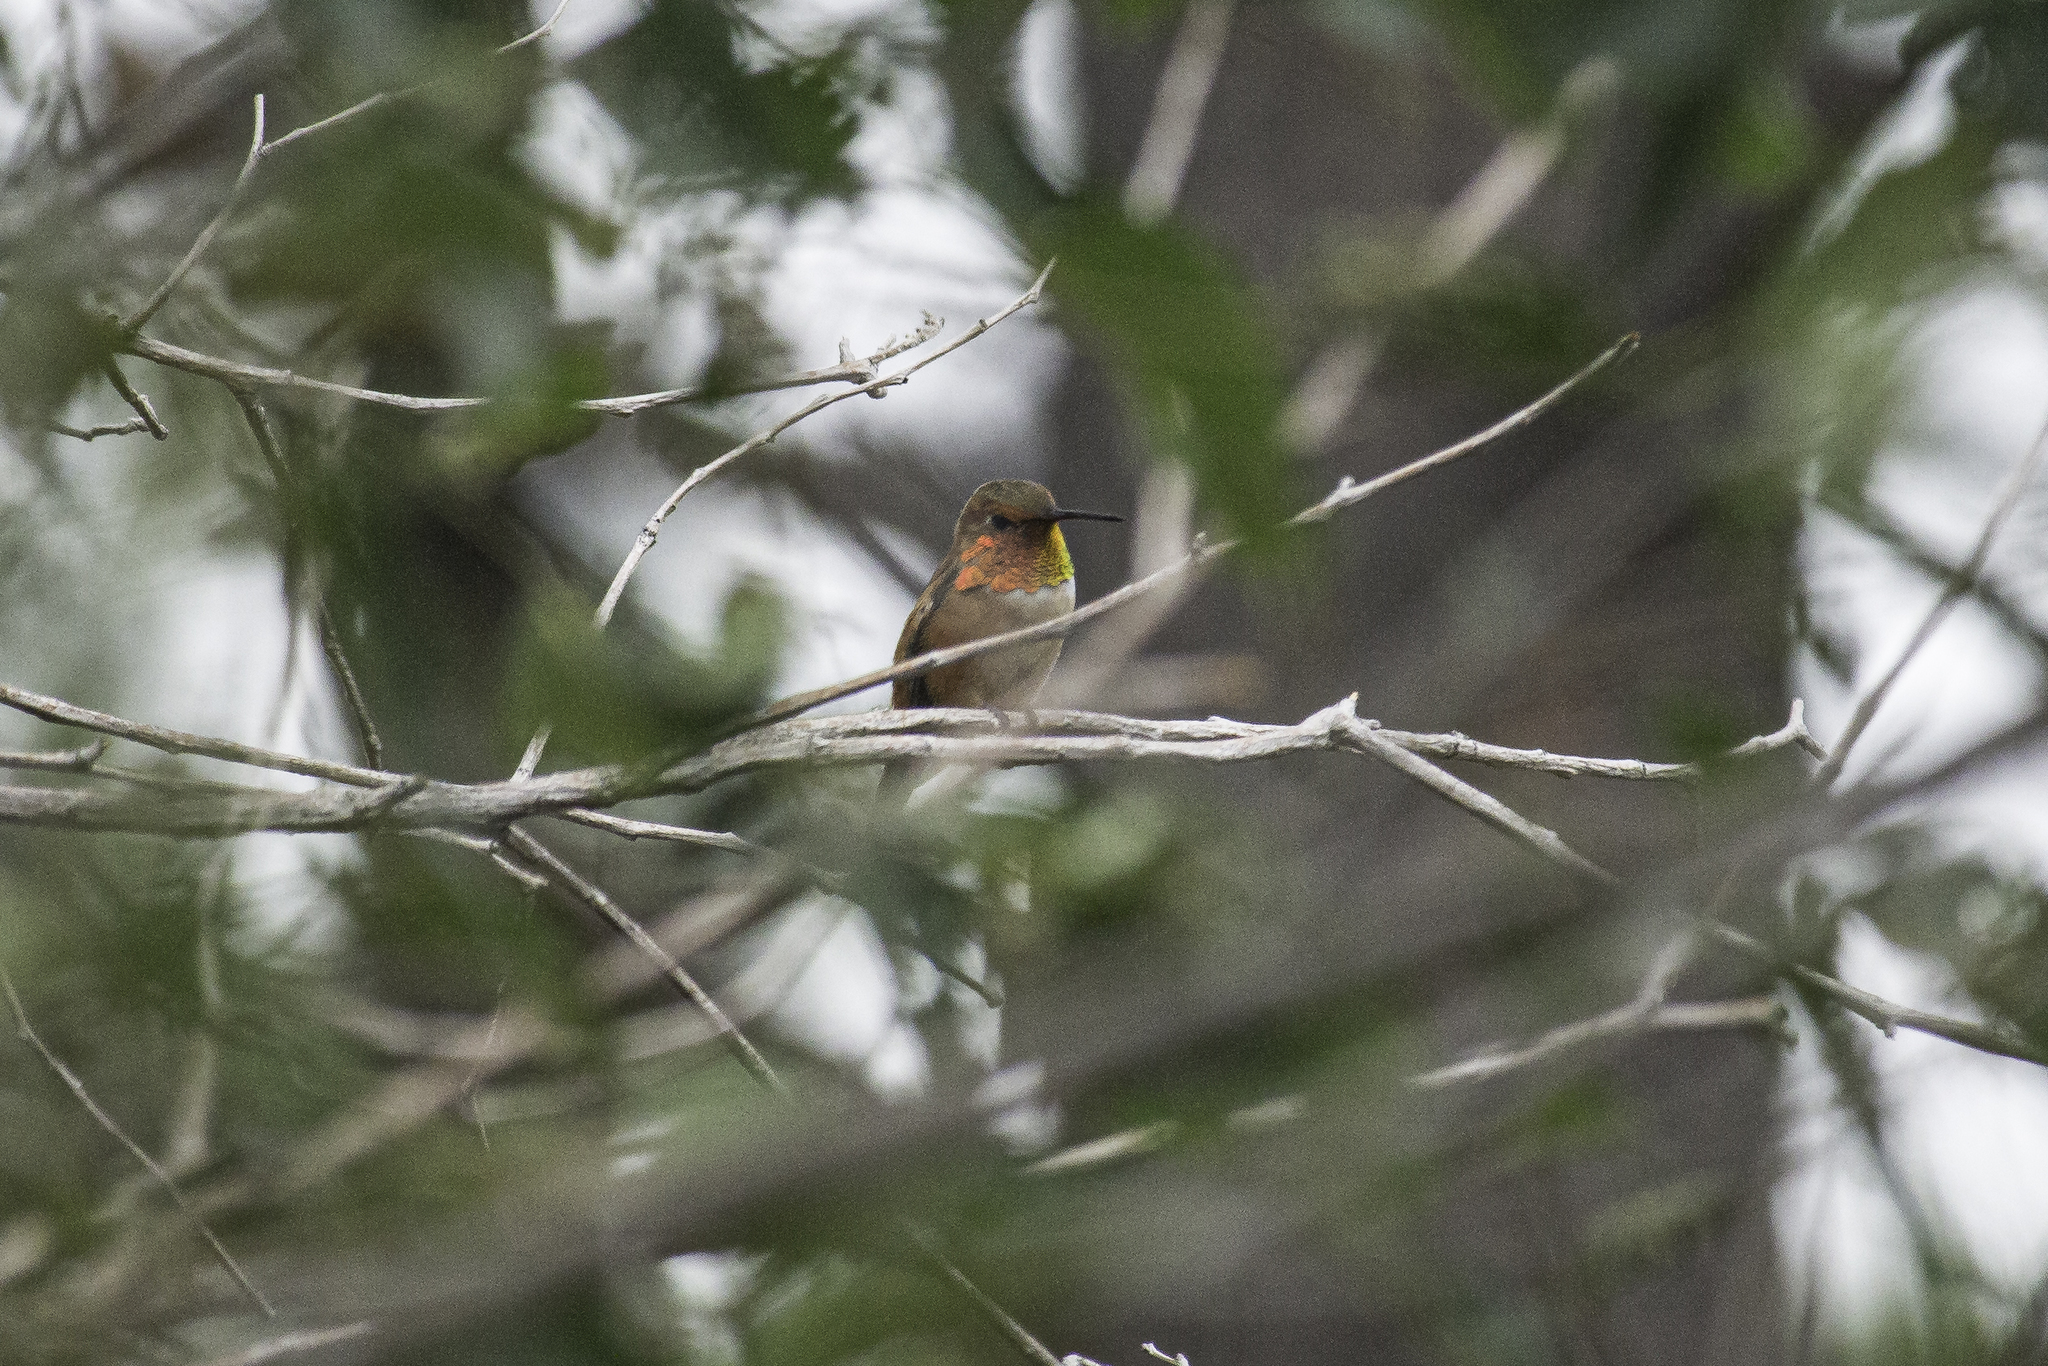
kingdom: Animalia
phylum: Chordata
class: Aves
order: Apodiformes
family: Trochilidae
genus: Selasphorus
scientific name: Selasphorus rufus
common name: Rufous hummingbird
